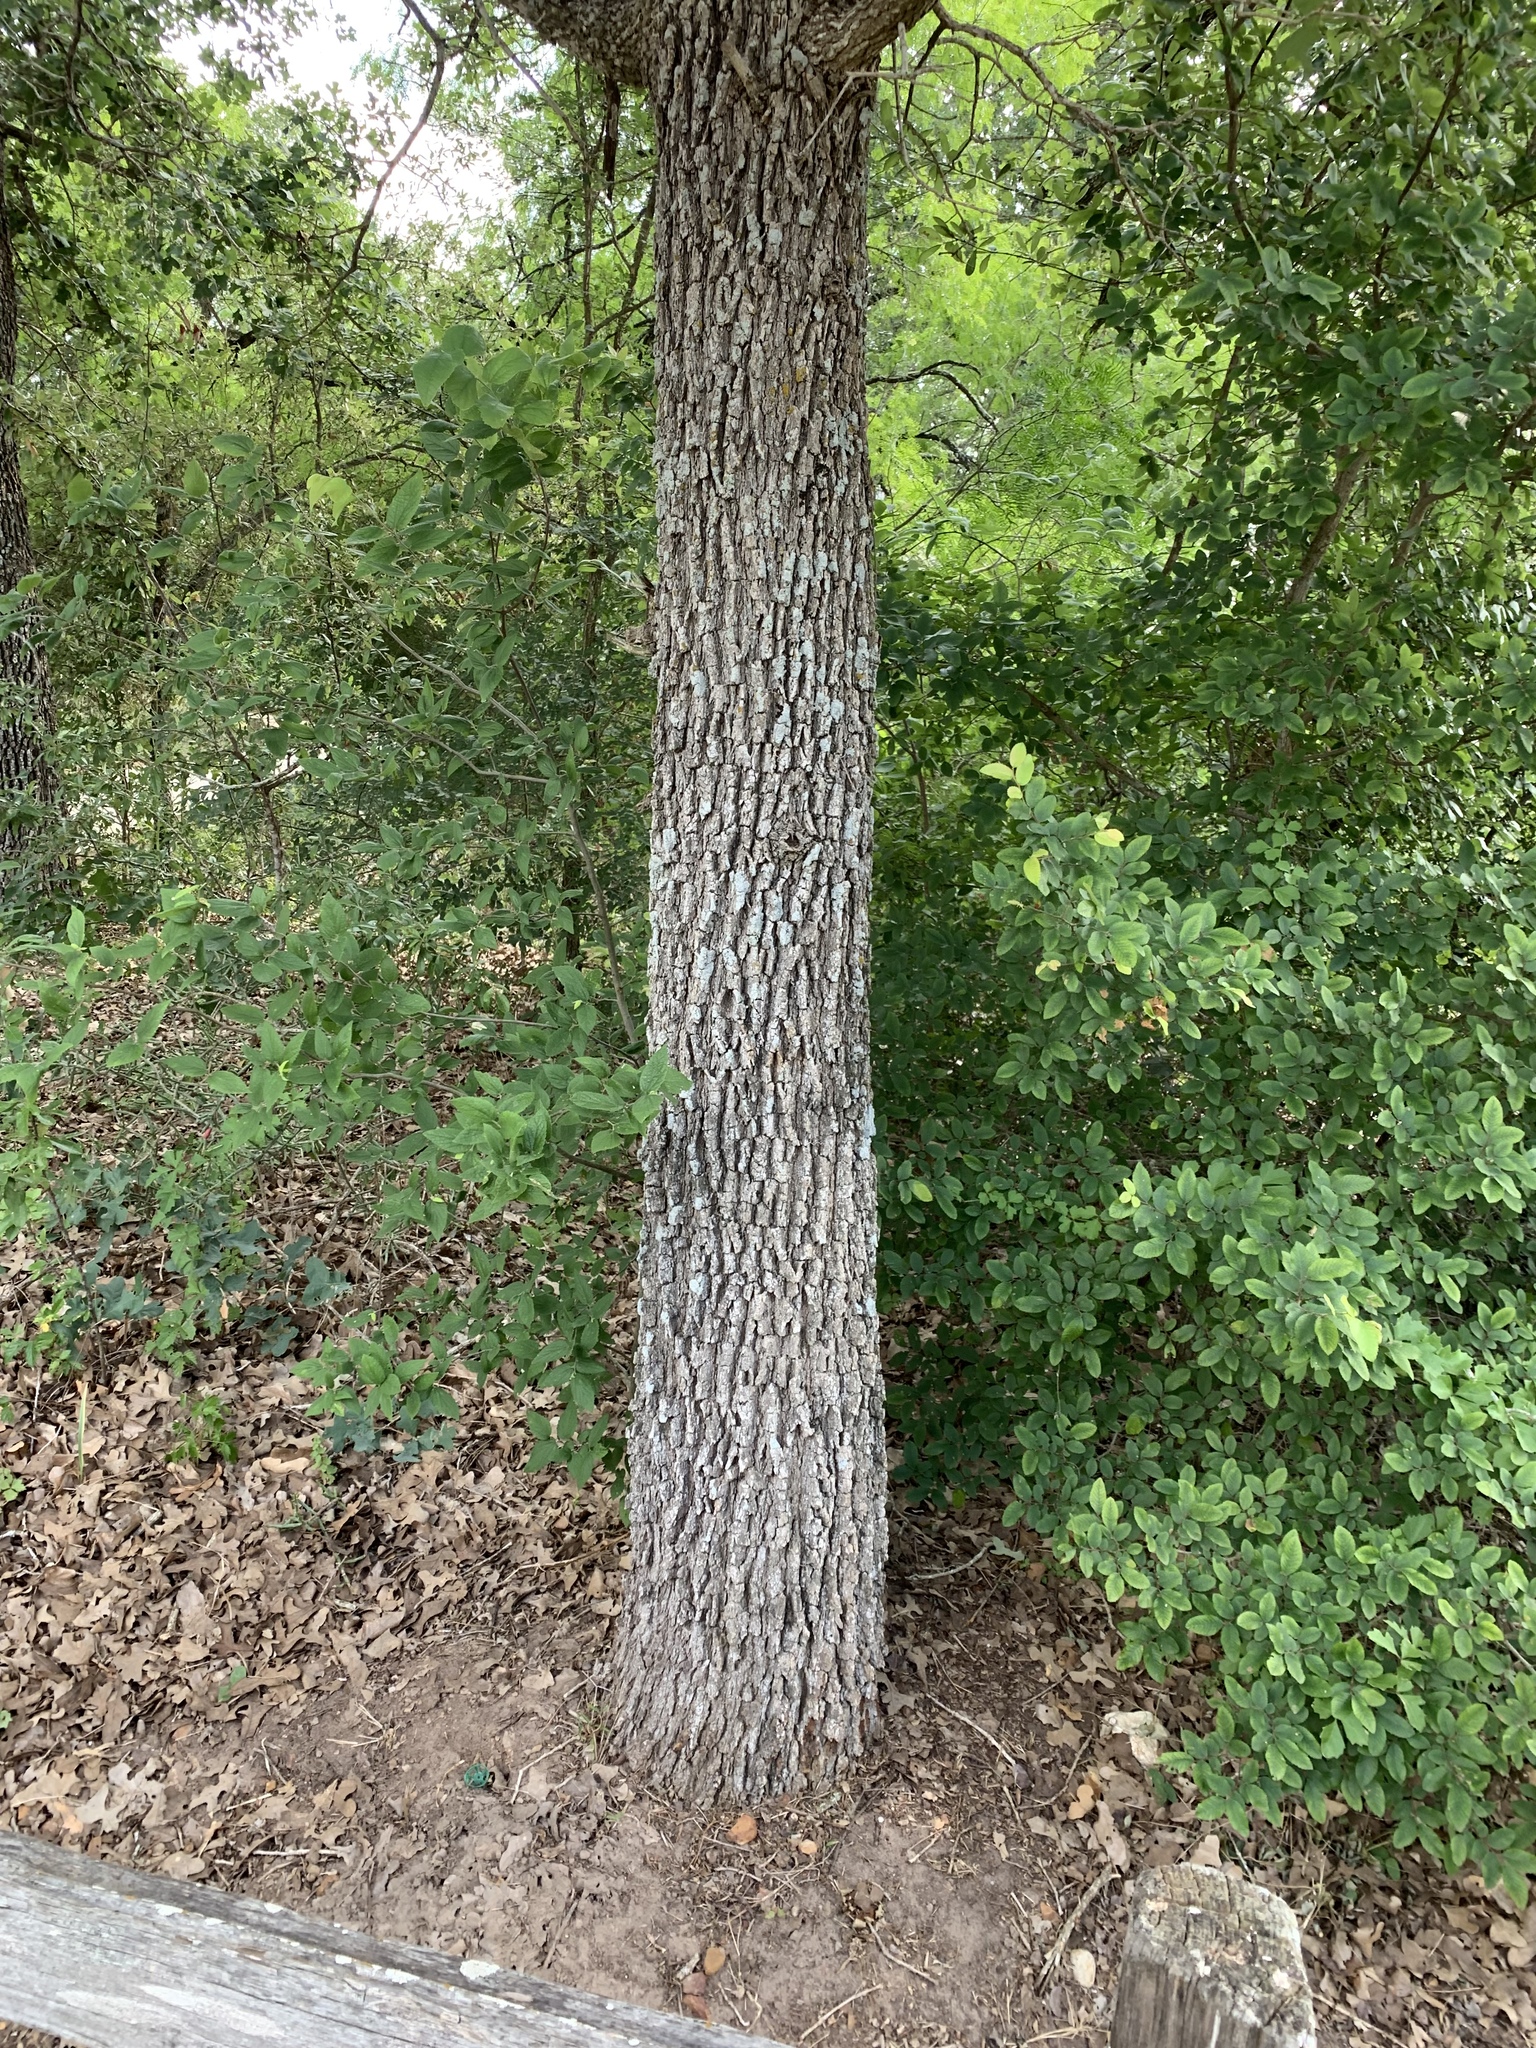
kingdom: Plantae
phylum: Tracheophyta
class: Magnoliopsida
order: Fagales
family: Fagaceae
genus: Quercus
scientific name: Quercus stellata
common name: Post oak
